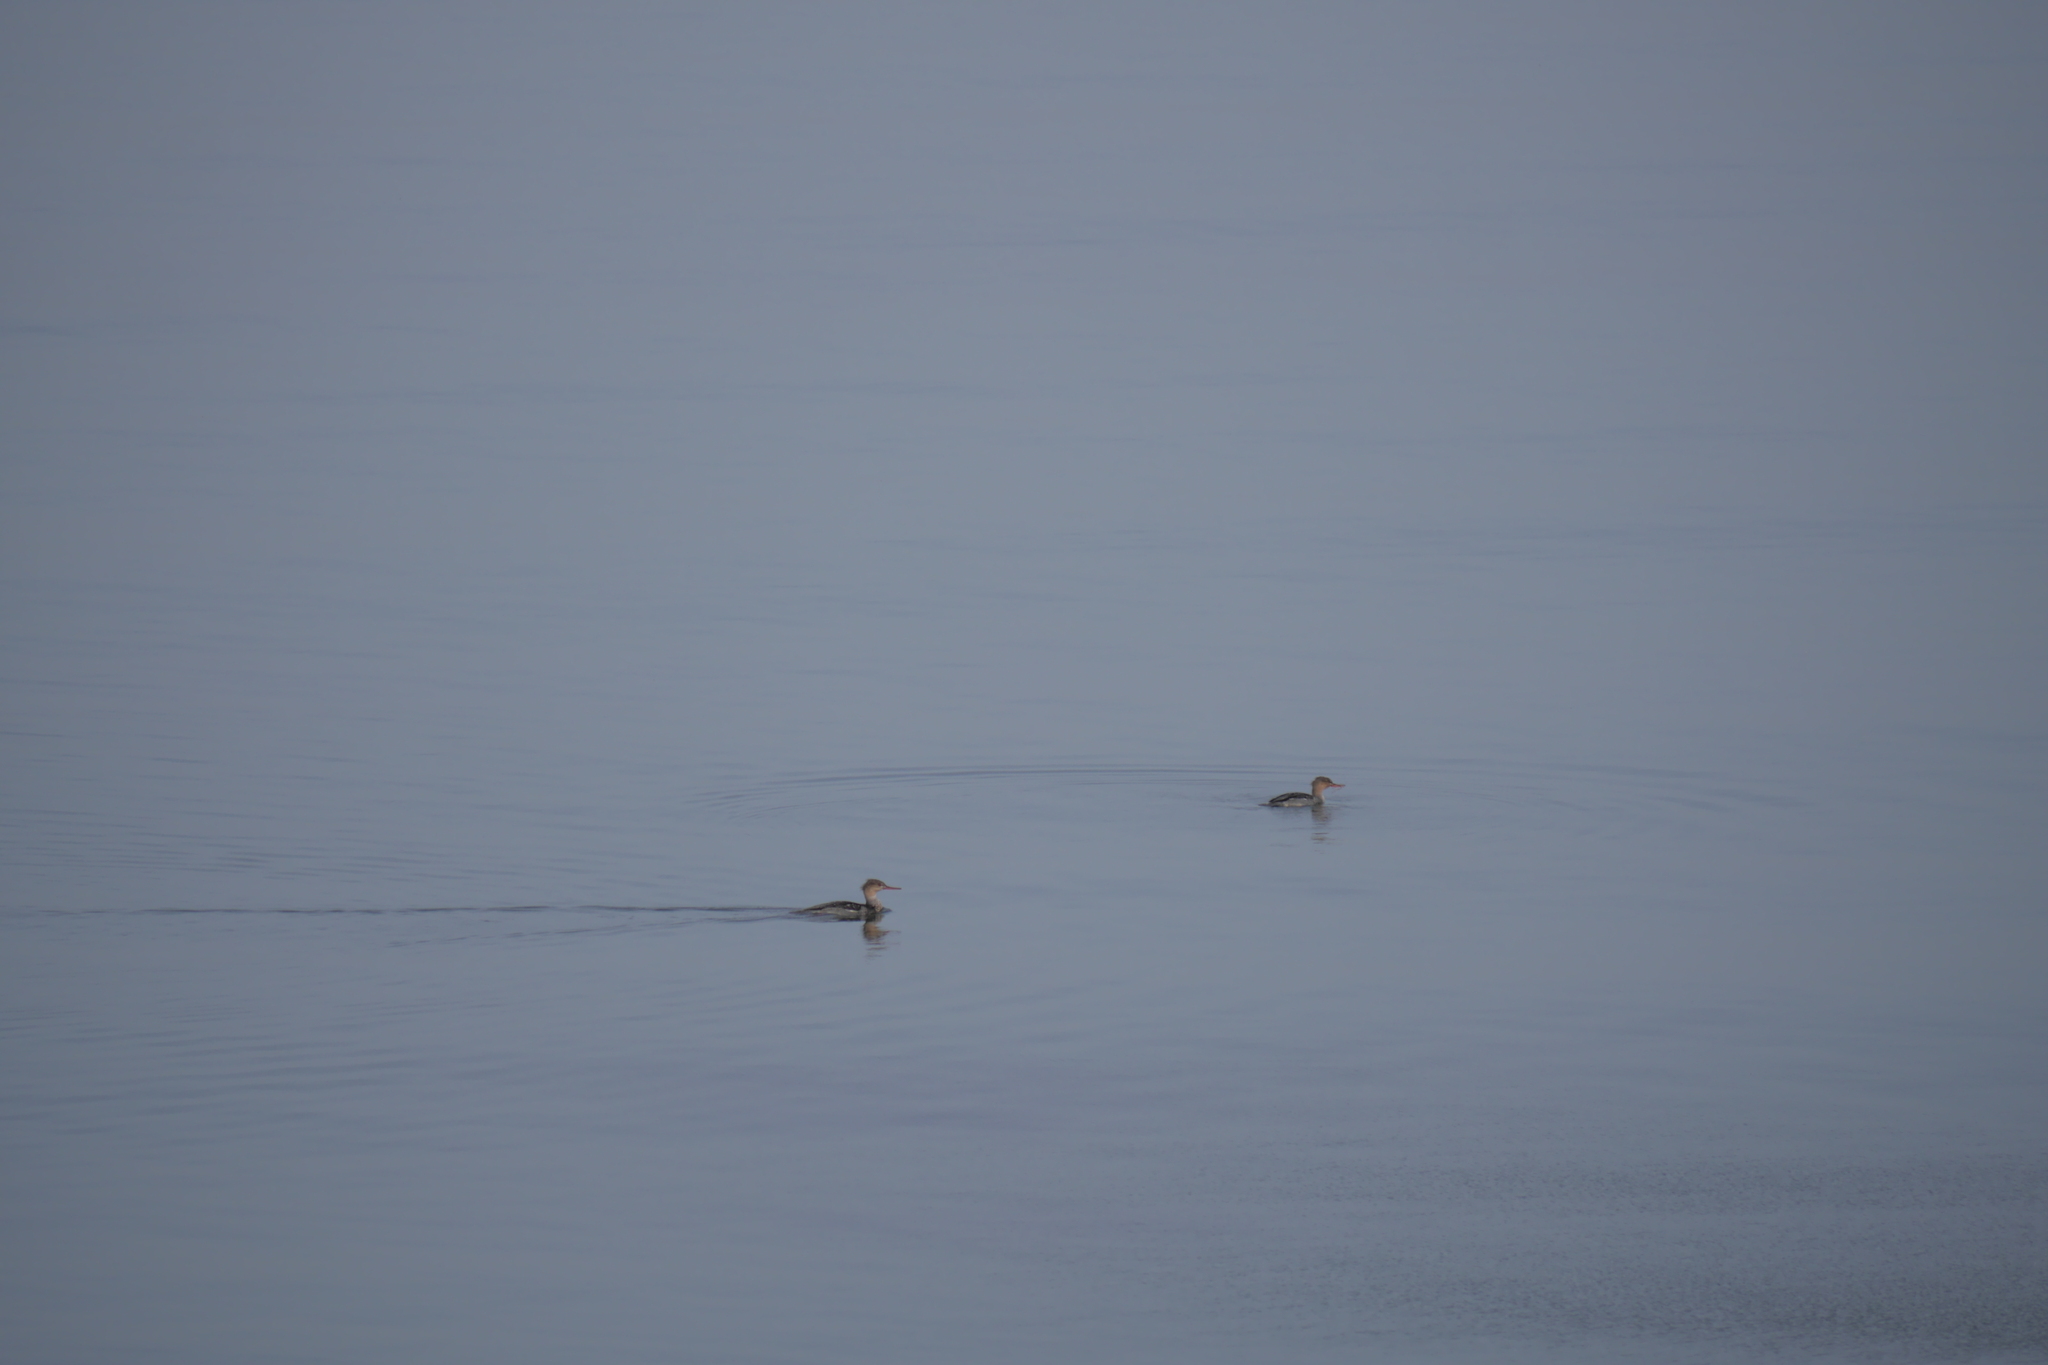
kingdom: Animalia
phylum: Chordata
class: Aves
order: Anseriformes
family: Anatidae
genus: Mergus
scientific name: Mergus serrator
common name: Red-breasted merganser
